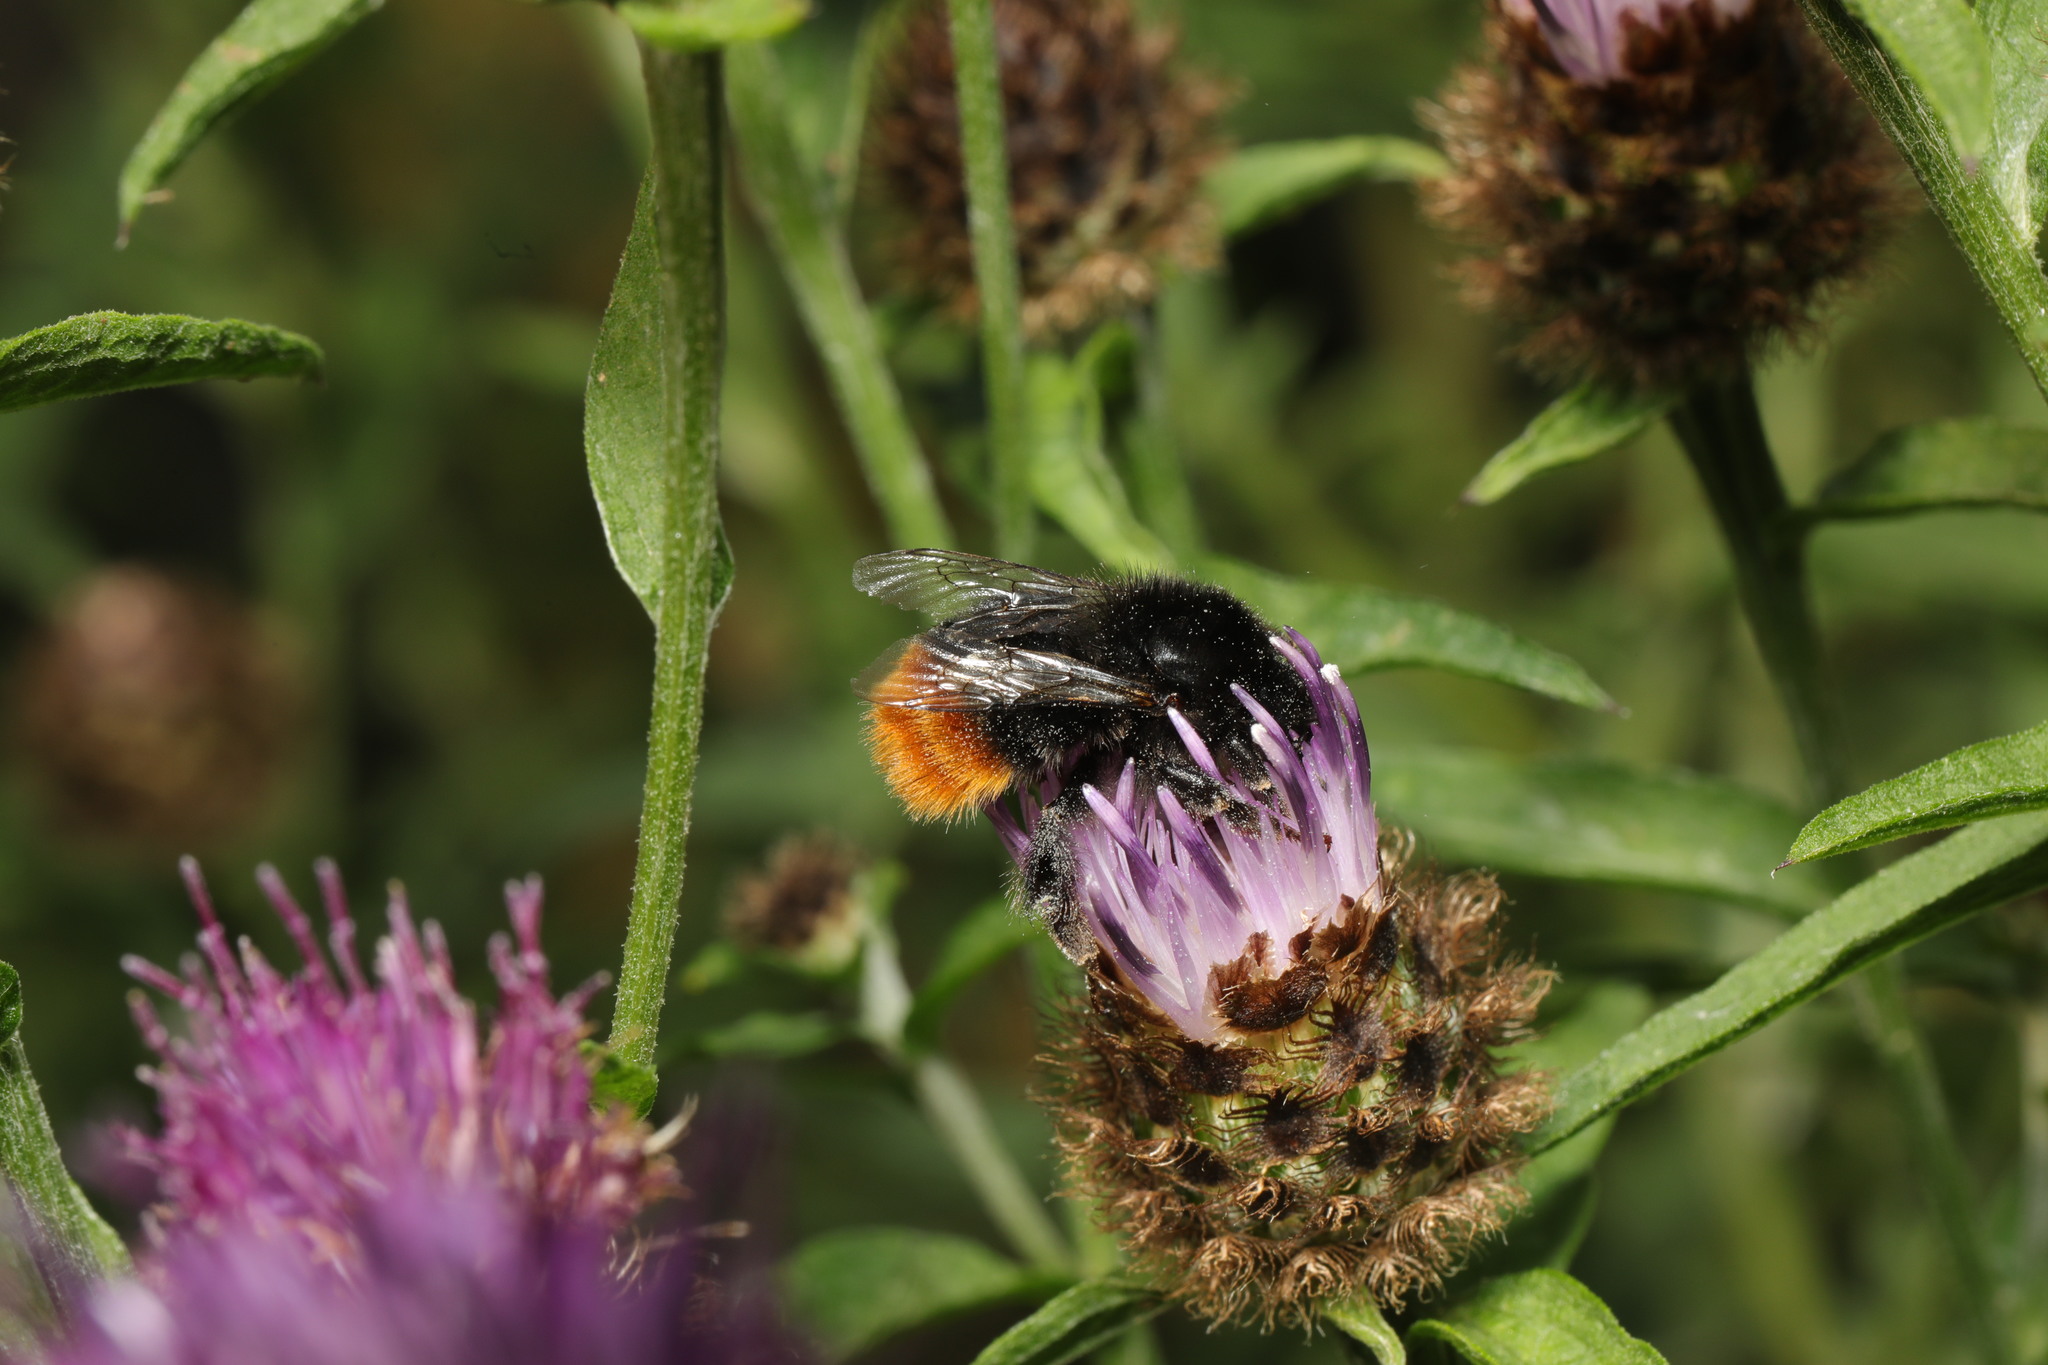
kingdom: Animalia
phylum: Arthropoda
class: Insecta
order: Hymenoptera
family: Apidae
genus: Bombus
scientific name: Bombus lapidarius
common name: Large red-tailed humble-bee
